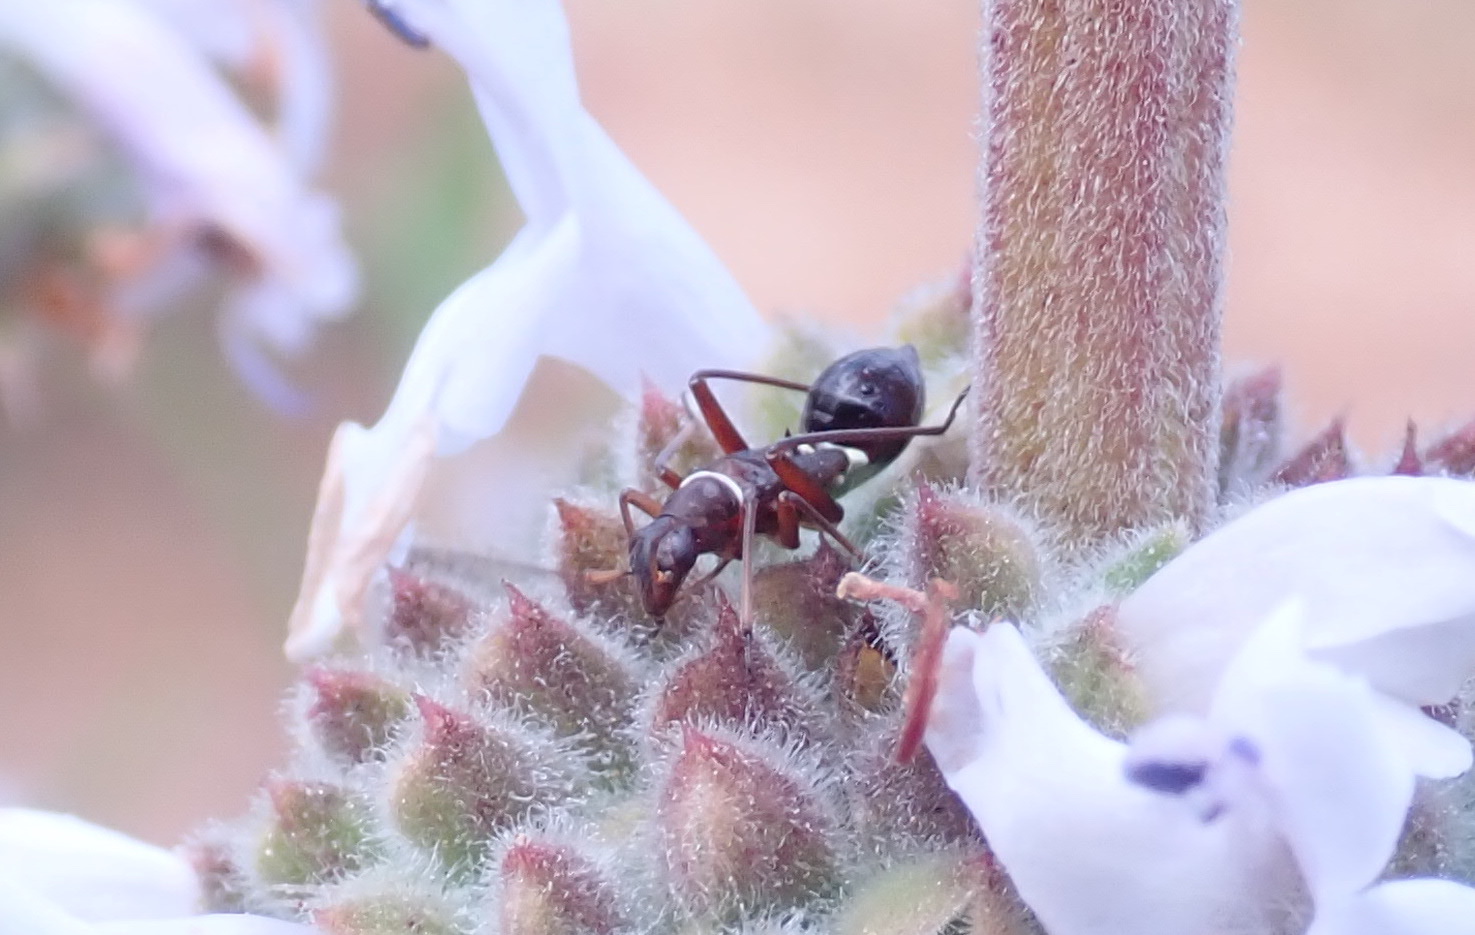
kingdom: Animalia
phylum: Arthropoda
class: Insecta
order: Hemiptera
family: Miridae
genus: Closterocoris
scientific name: Closterocoris amoenus
